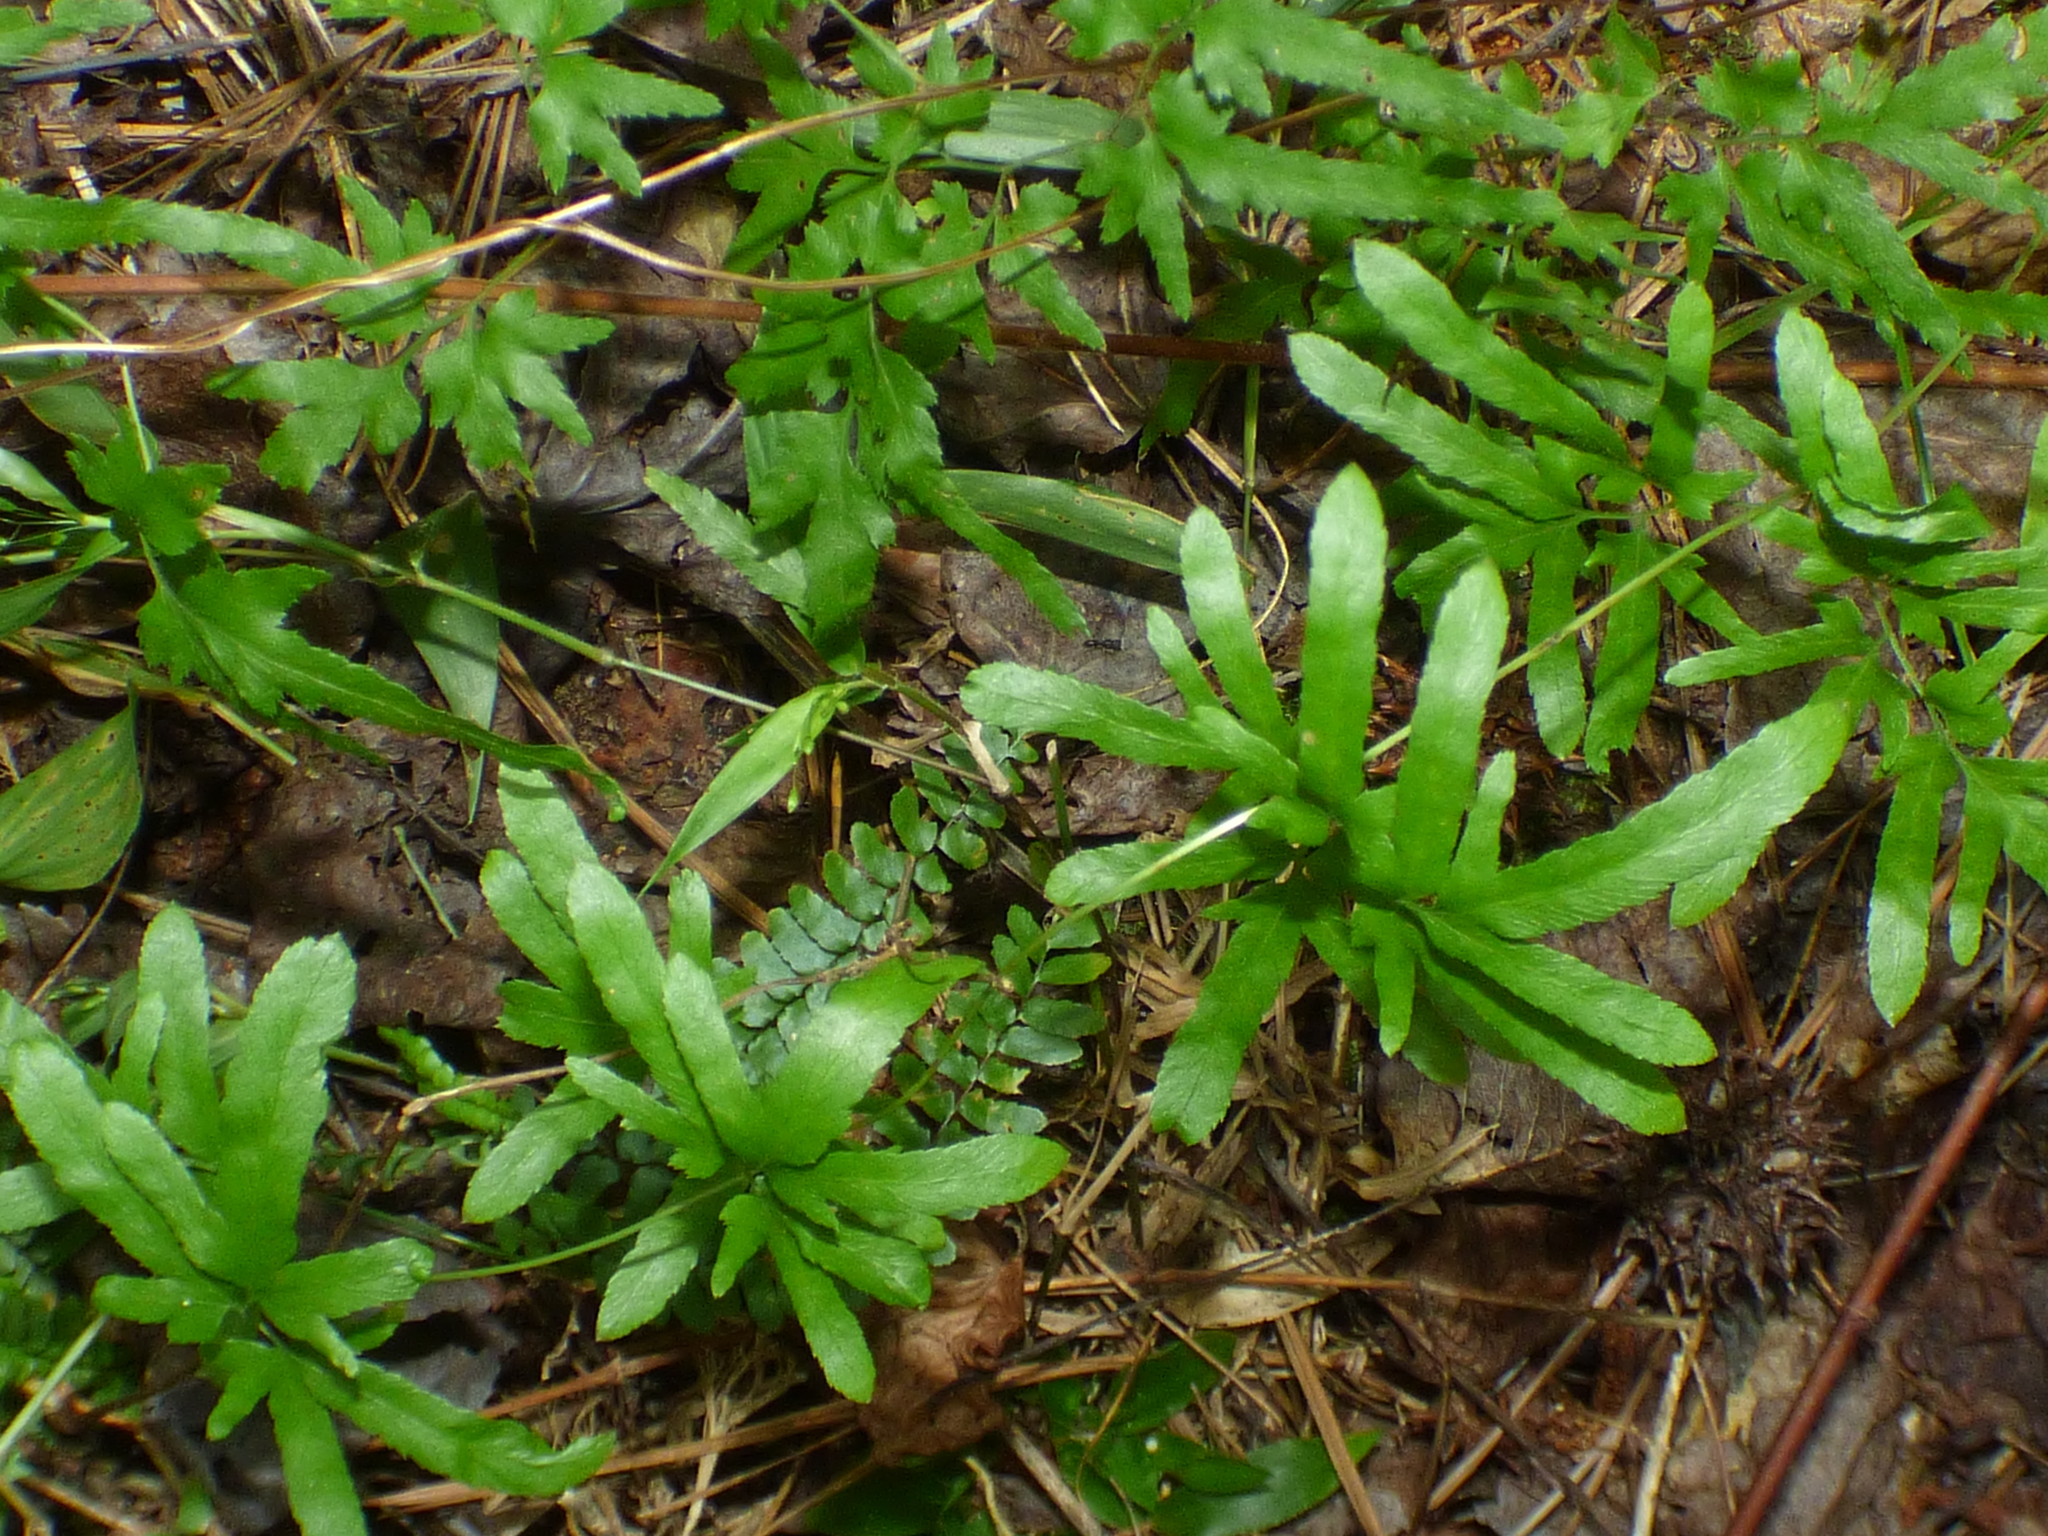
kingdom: Plantae
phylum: Tracheophyta
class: Polypodiopsida
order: Schizaeales
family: Lygodiaceae
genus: Lygodium
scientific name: Lygodium japonicum
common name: Japanese climbing fern
